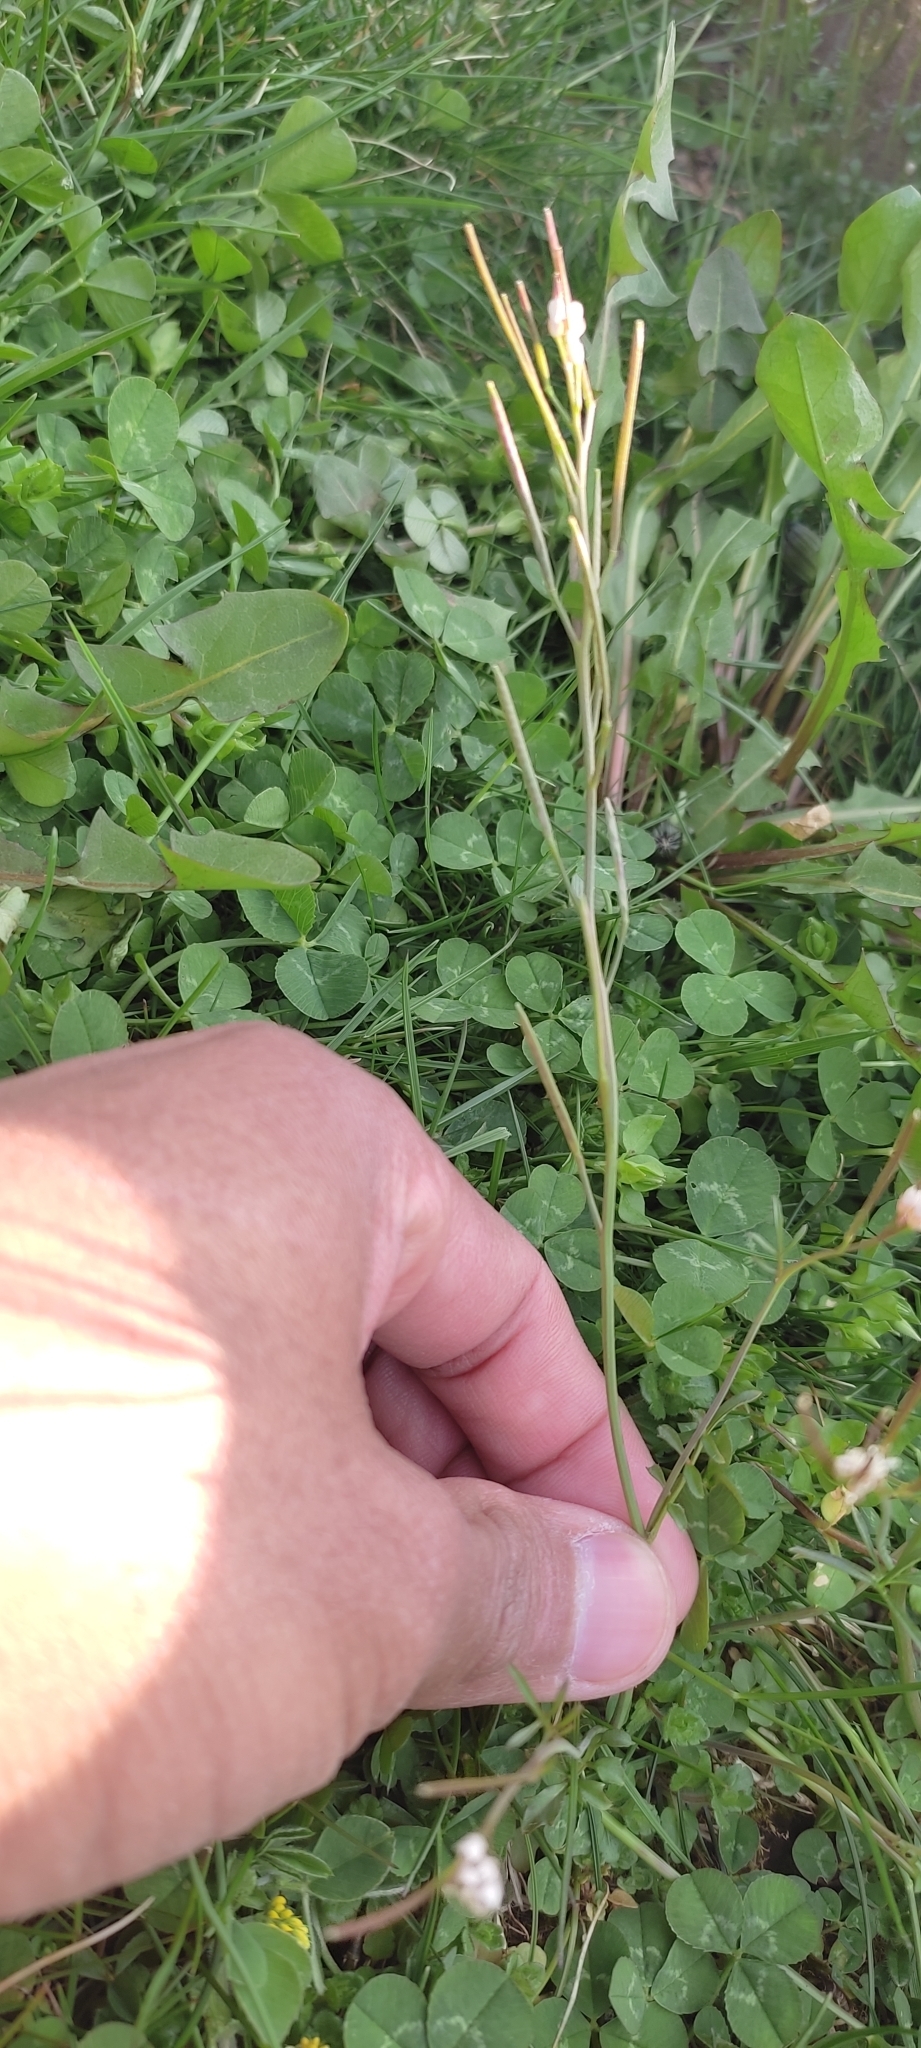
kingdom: Plantae
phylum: Tracheophyta
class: Magnoliopsida
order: Brassicales
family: Brassicaceae
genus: Cardamine
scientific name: Cardamine hirsuta
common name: Hairy bittercress
